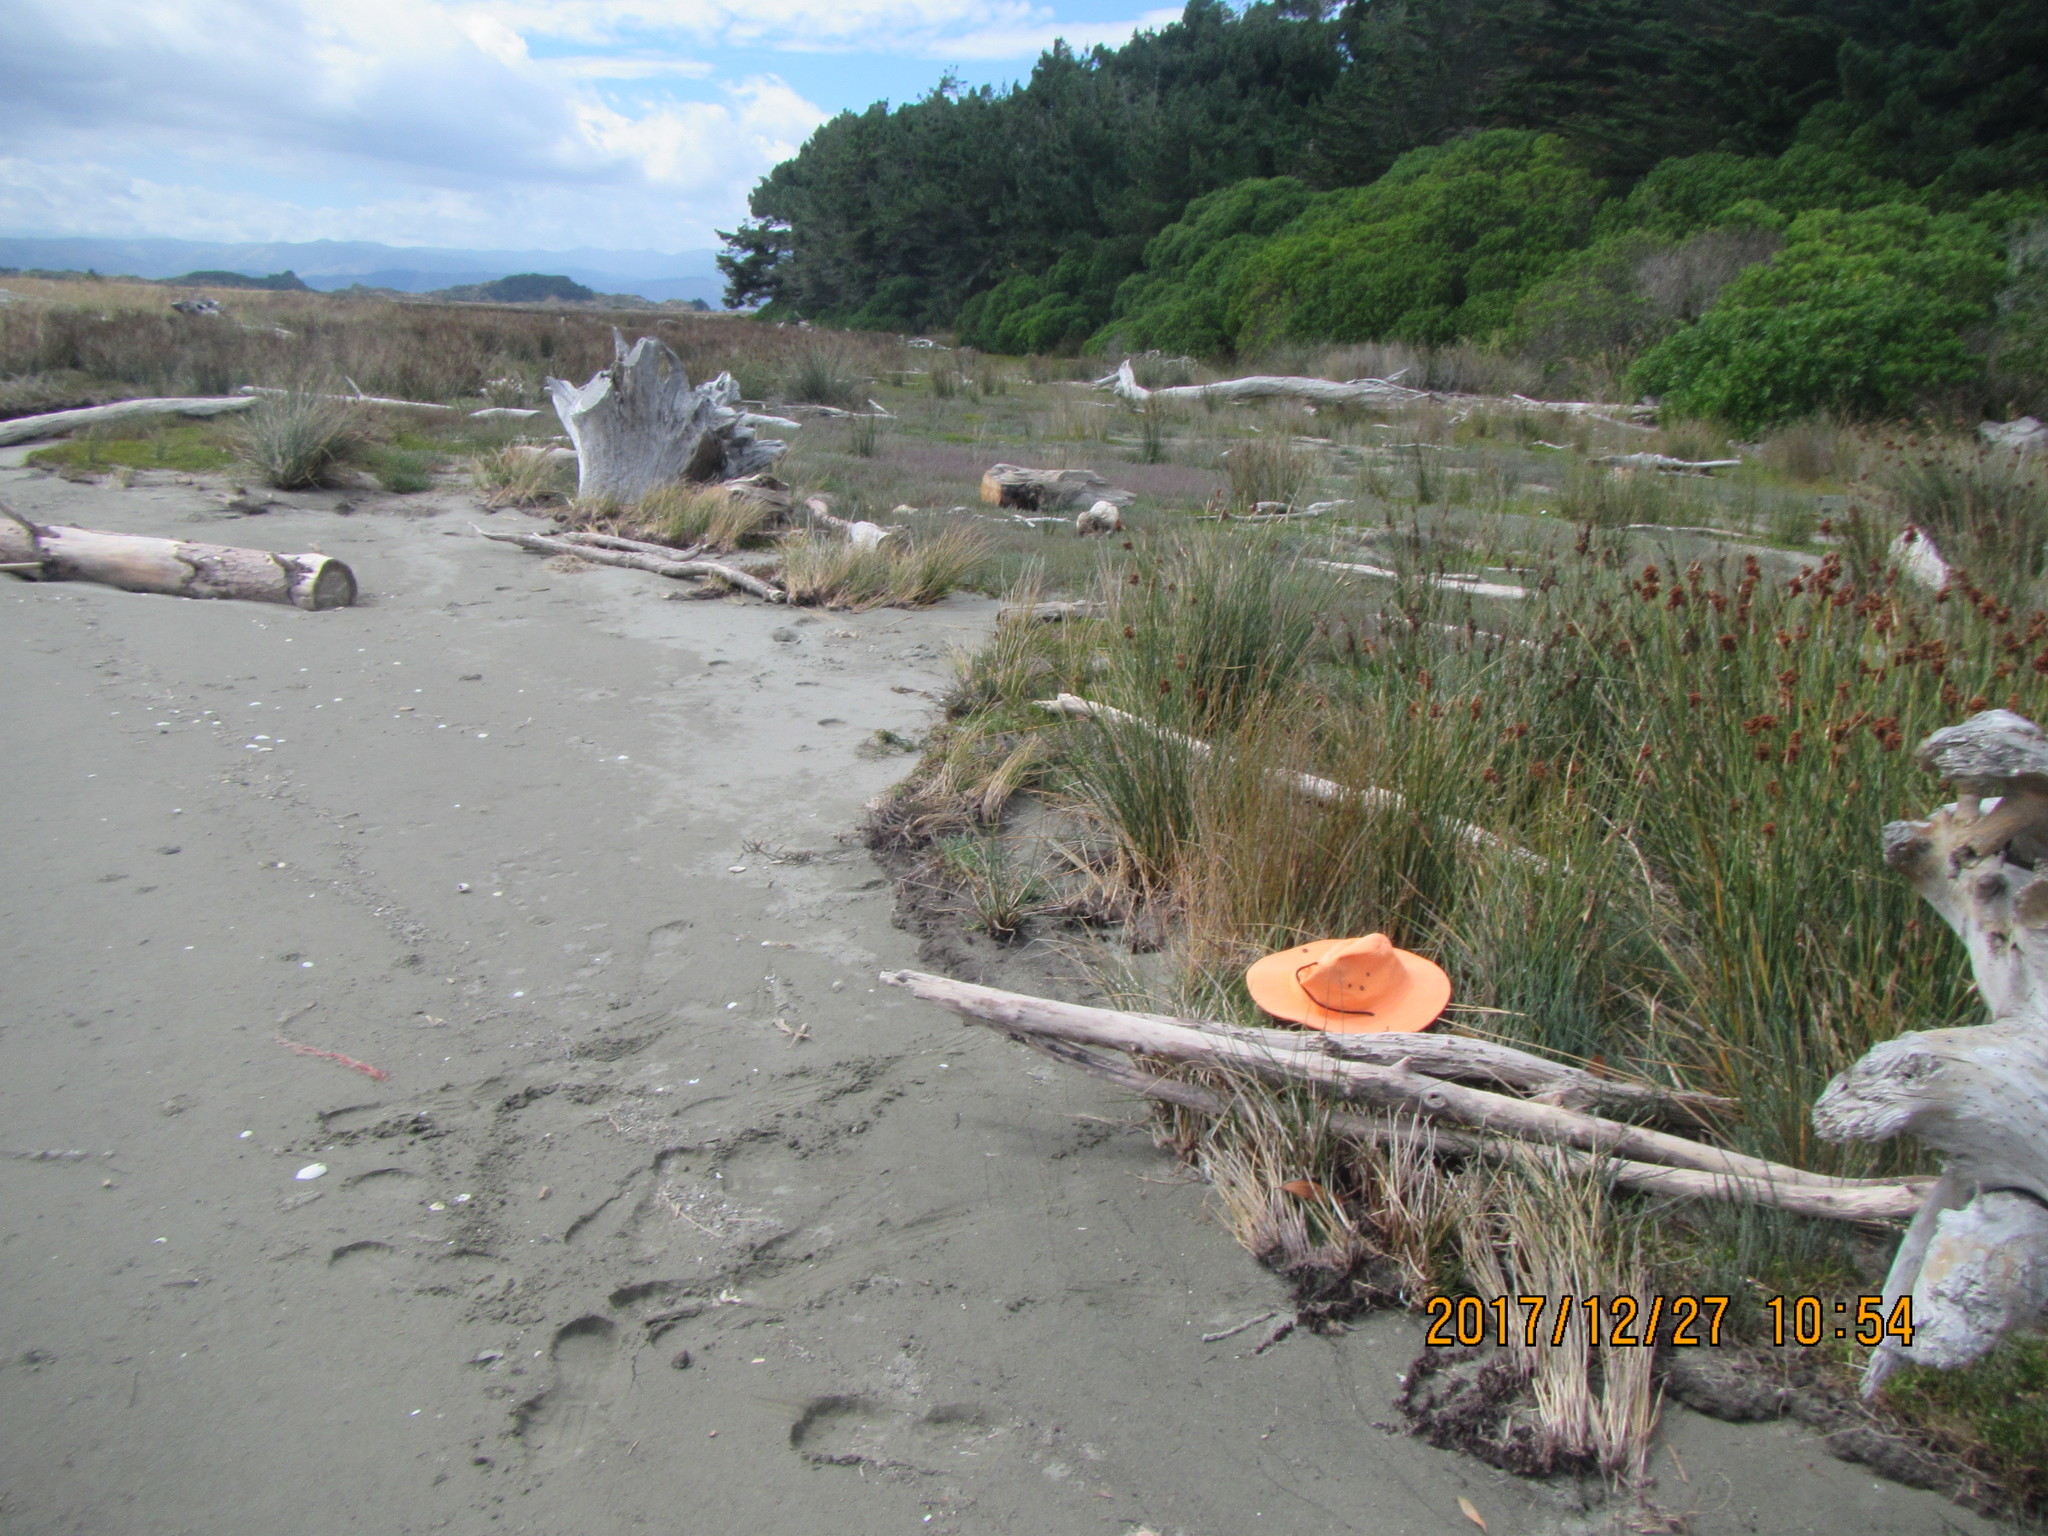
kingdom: Plantae
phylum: Tracheophyta
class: Liliopsida
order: Poales
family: Restionaceae
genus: Apodasmia
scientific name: Apodasmia similis
